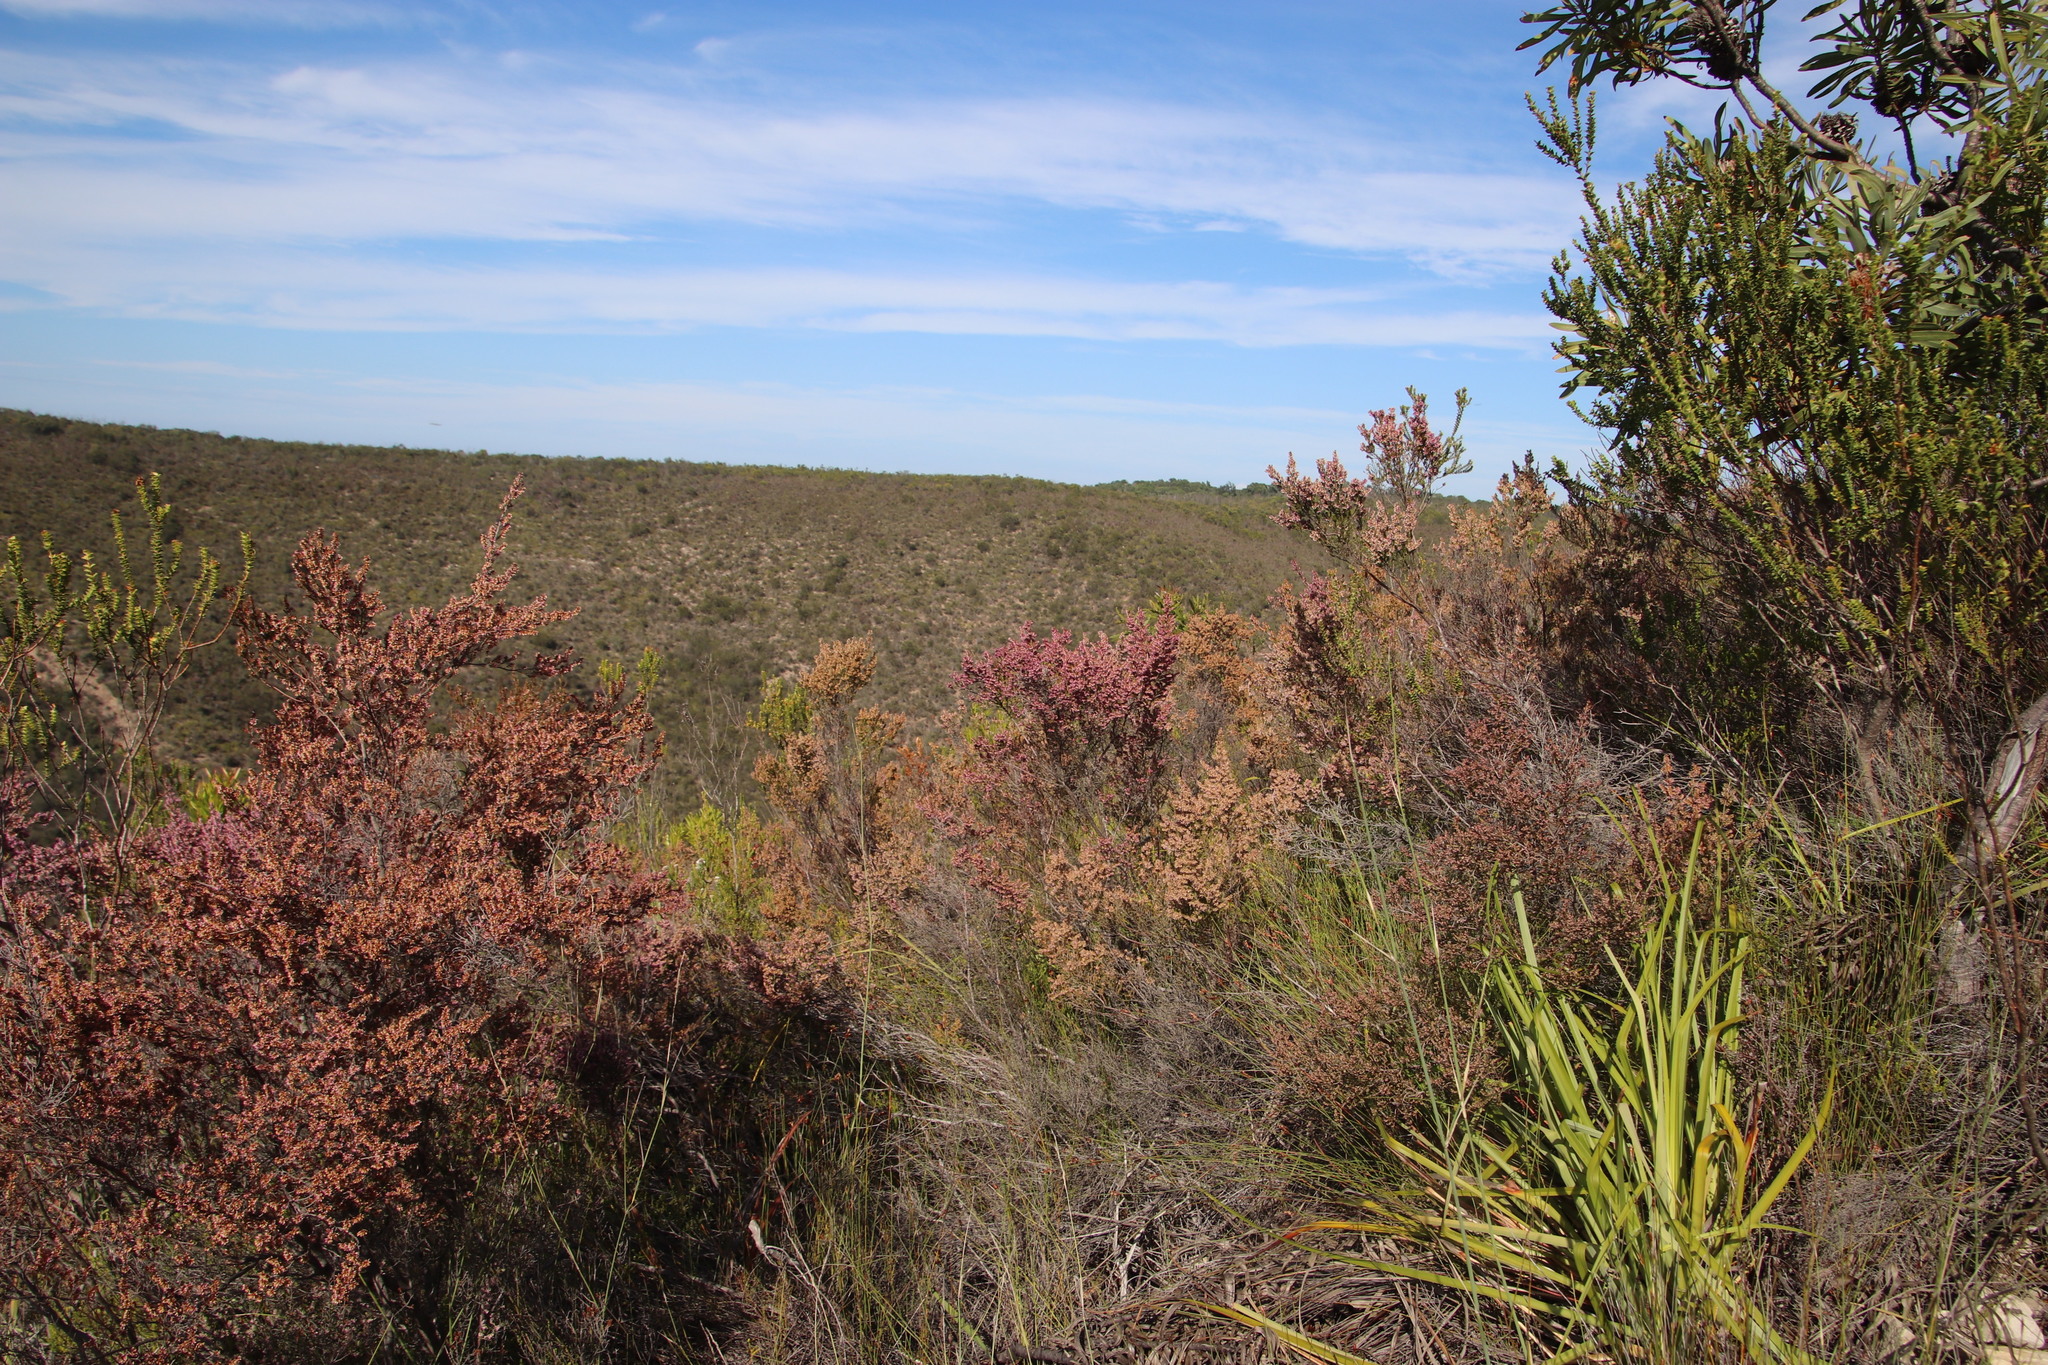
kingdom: Plantae
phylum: Tracheophyta
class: Magnoliopsida
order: Ericales
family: Ericaceae
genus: Erica
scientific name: Erica uberiflora
